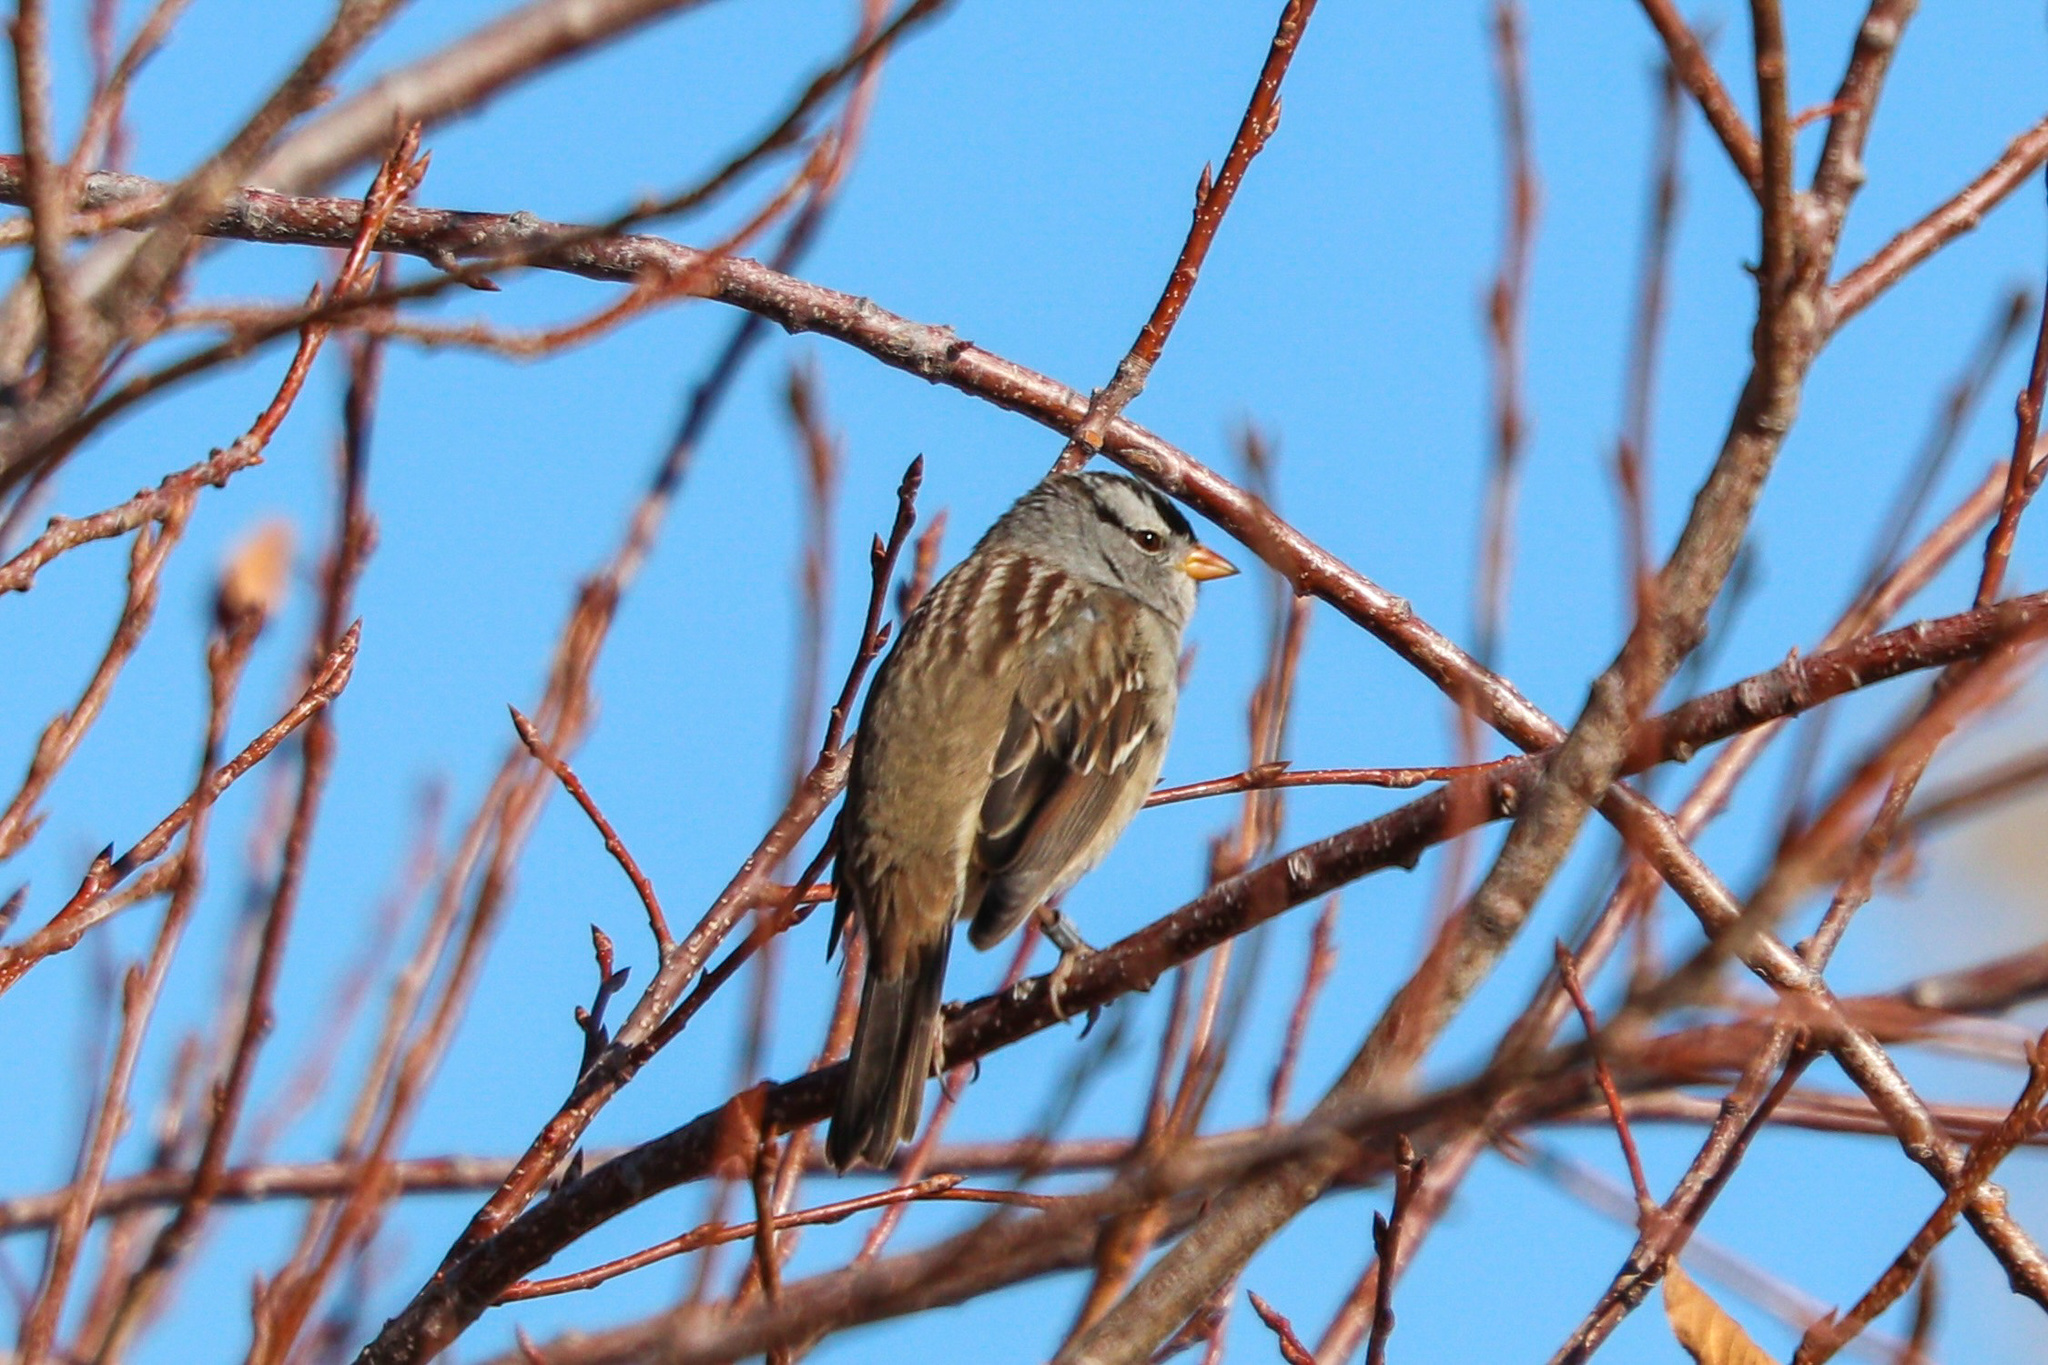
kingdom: Animalia
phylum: Chordata
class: Aves
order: Passeriformes
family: Passerellidae
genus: Zonotrichia
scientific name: Zonotrichia leucophrys
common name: White-crowned sparrow
